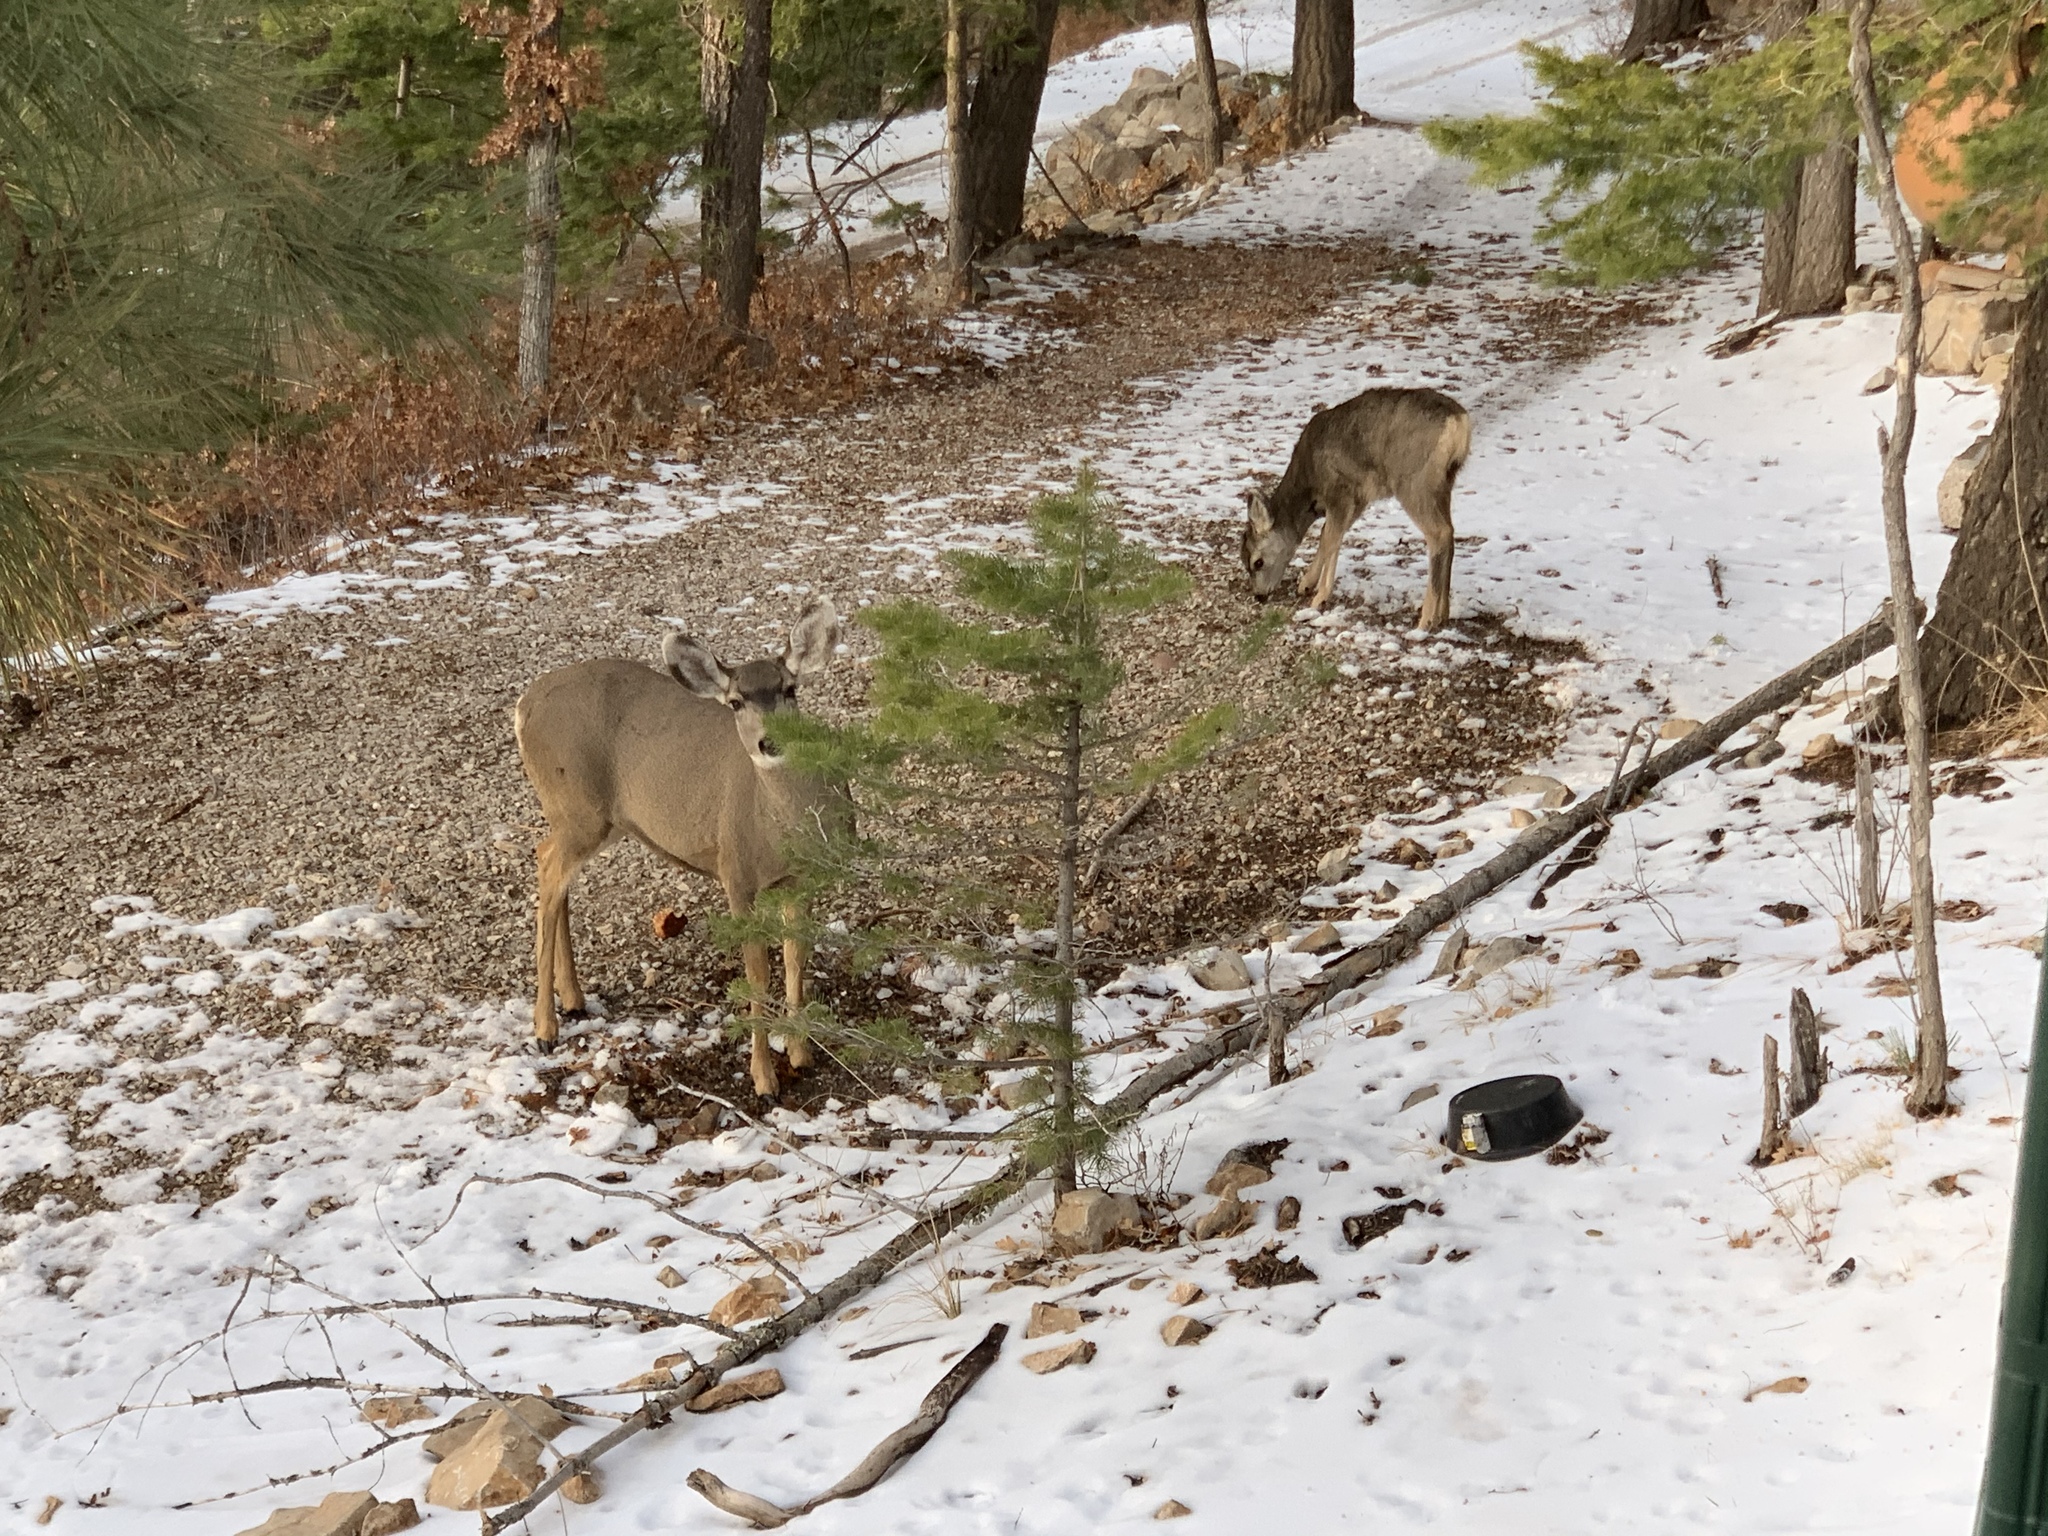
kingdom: Animalia
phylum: Chordata
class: Mammalia
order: Artiodactyla
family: Cervidae
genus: Odocoileus
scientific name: Odocoileus hemionus
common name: Mule deer
